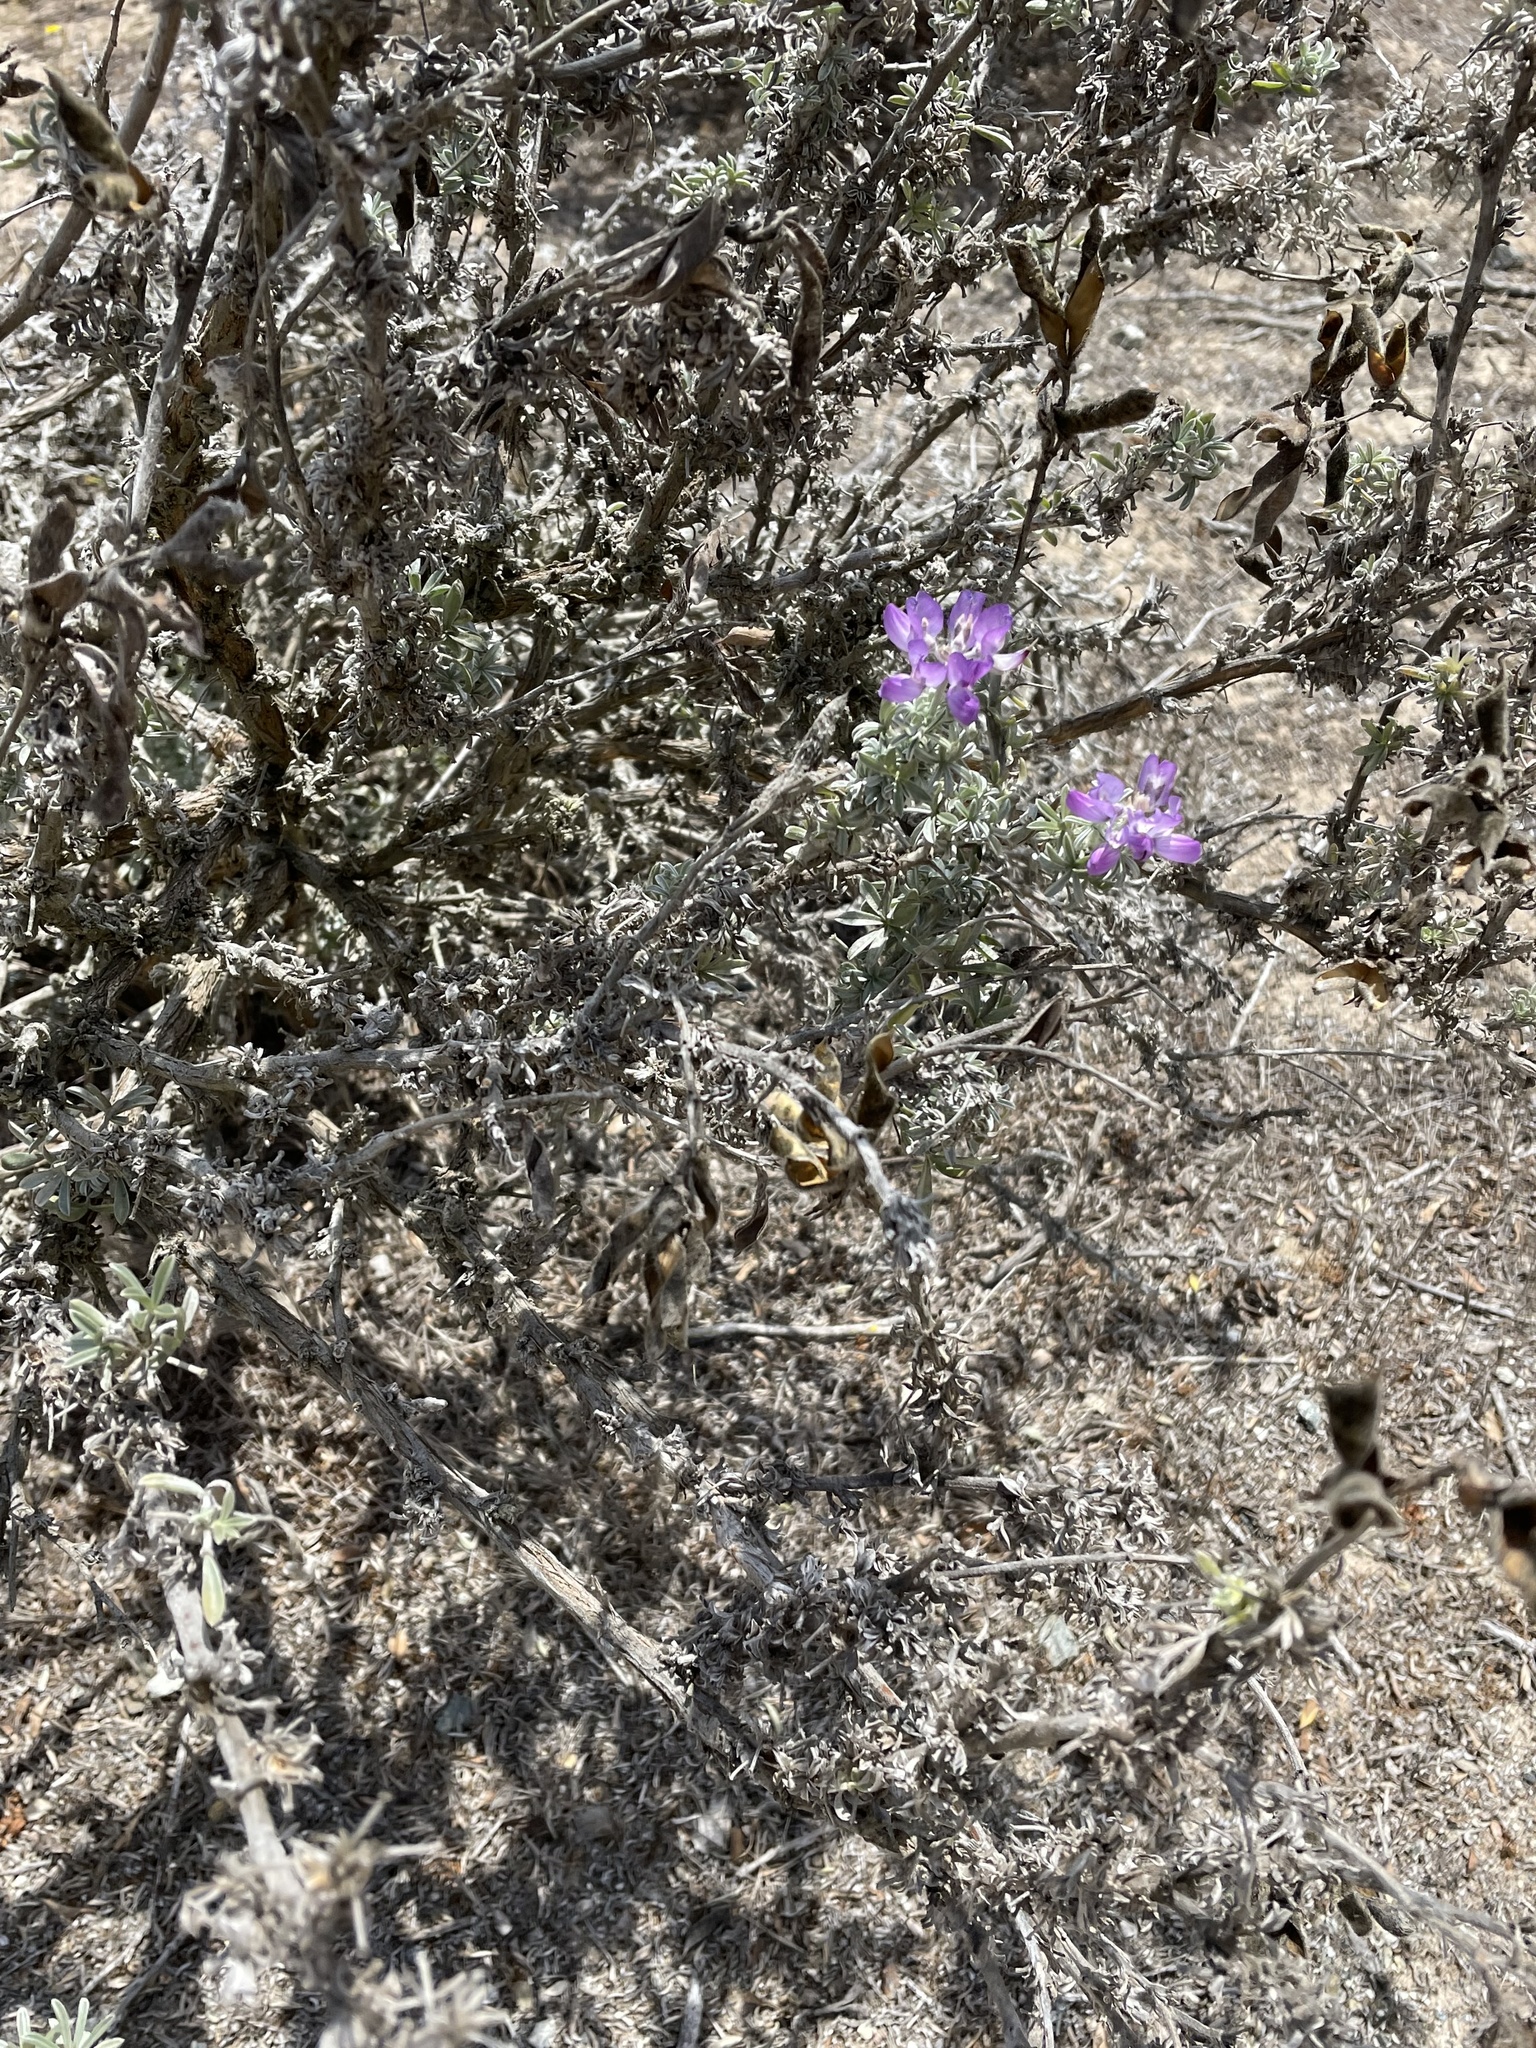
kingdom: Plantae
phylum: Tracheophyta
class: Magnoliopsida
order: Fabales
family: Fabaceae
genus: Lupinus
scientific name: Lupinus chamissonis
